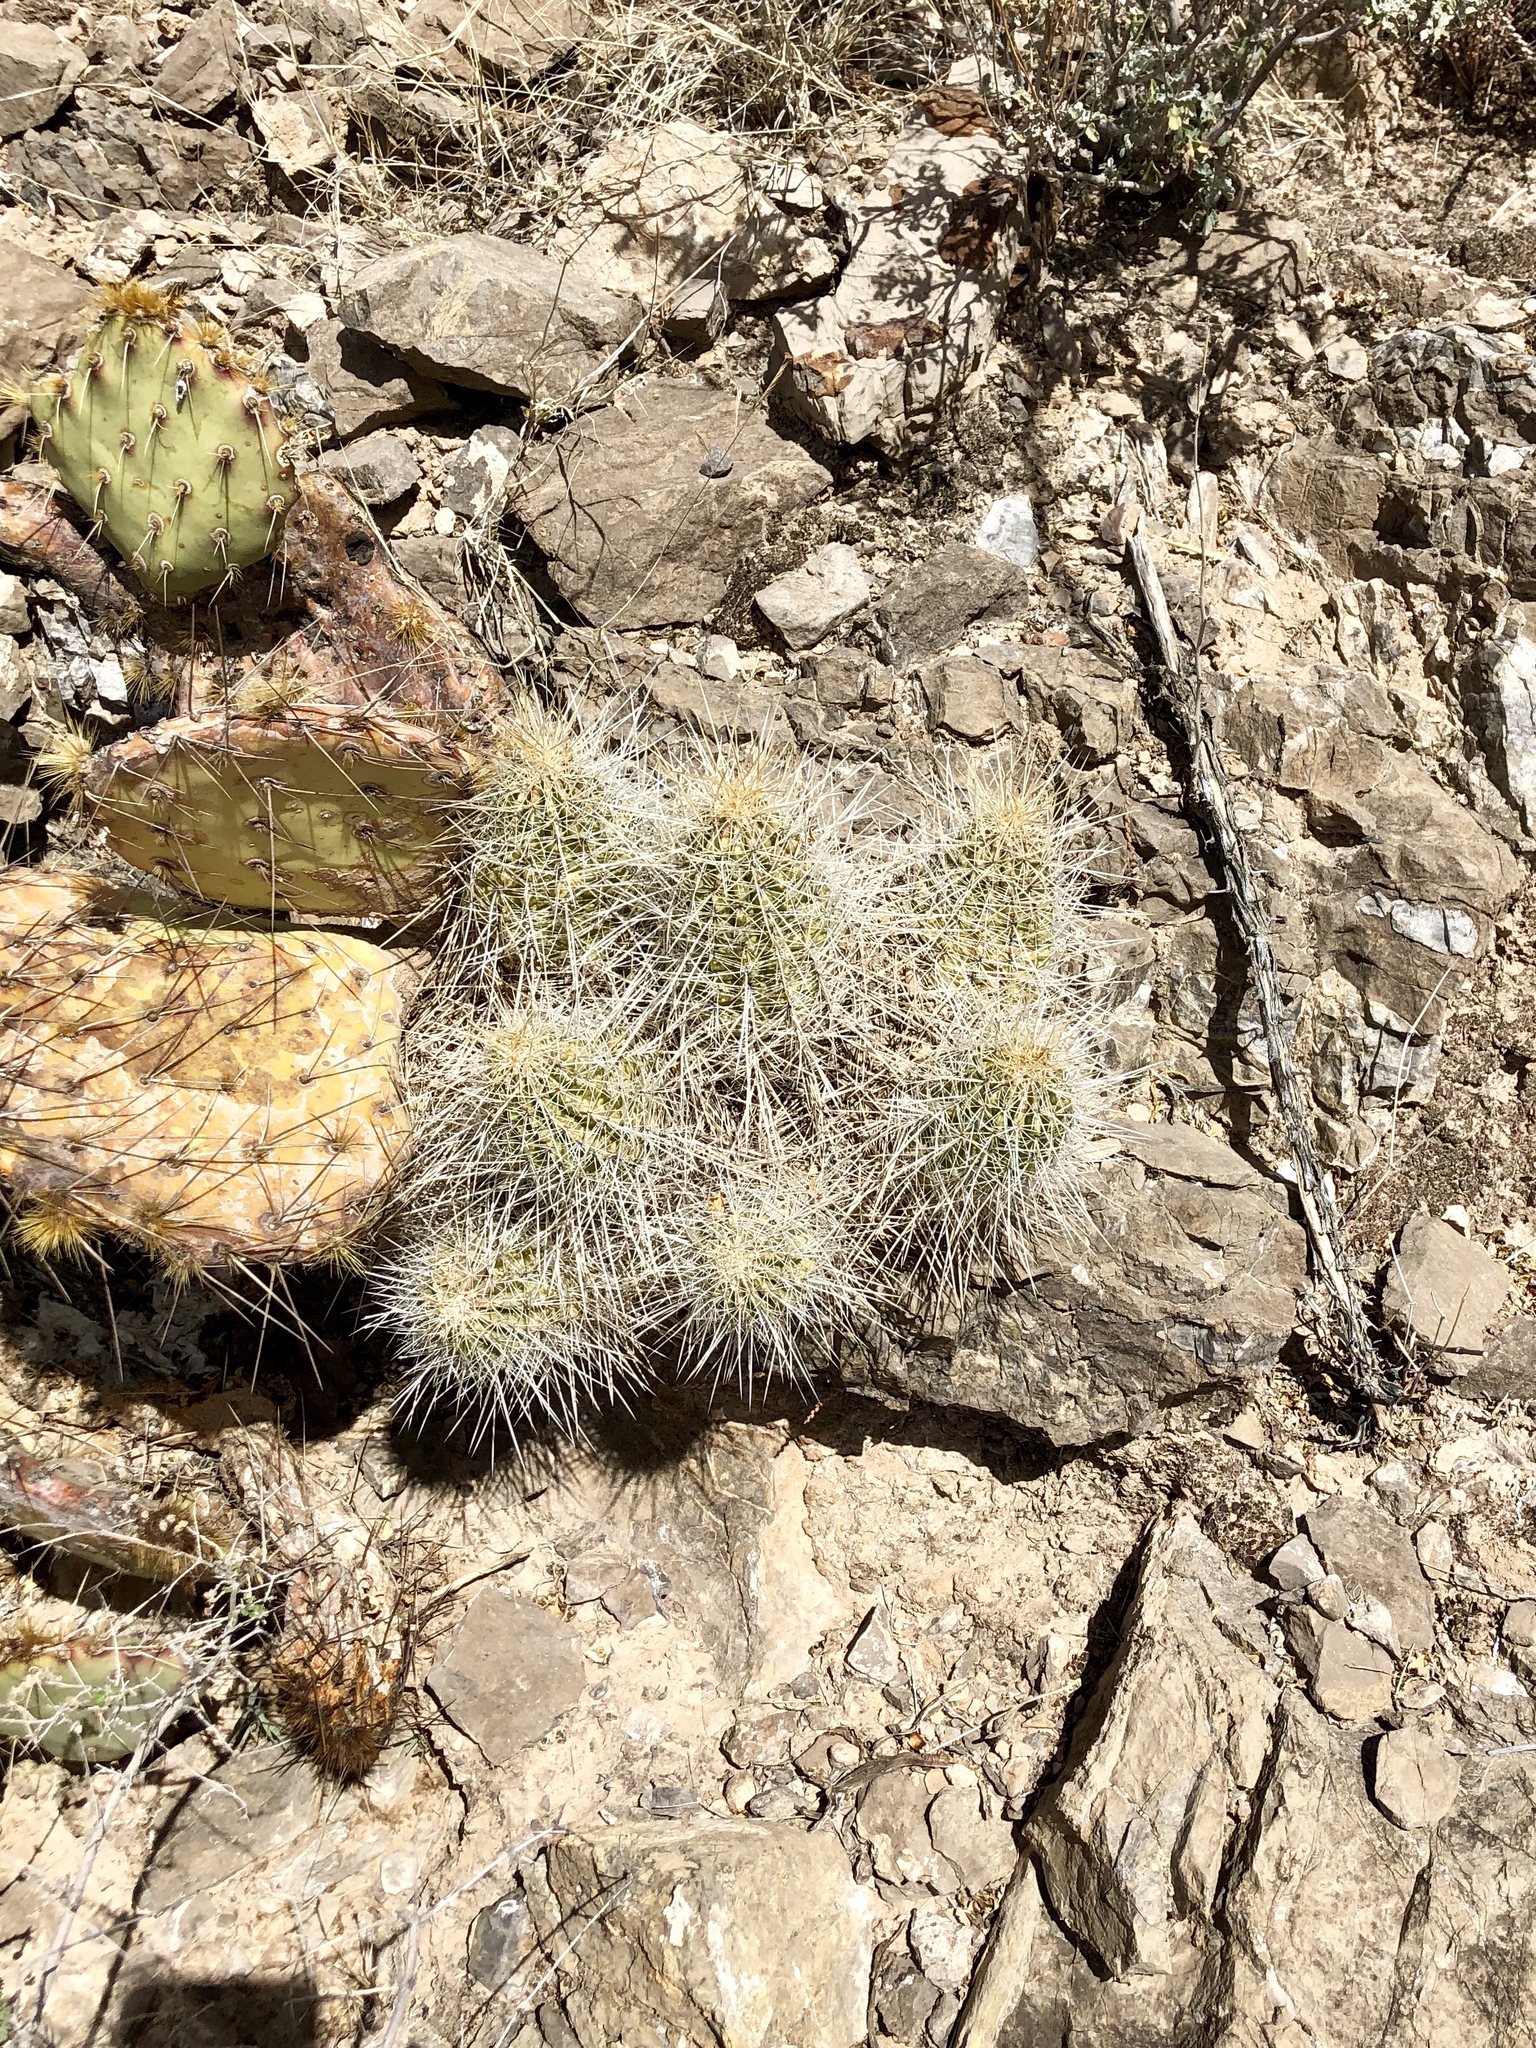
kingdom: Plantae
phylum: Tracheophyta
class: Magnoliopsida
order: Caryophyllales
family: Cactaceae
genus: Echinocereus
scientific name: Echinocereus stramineus
